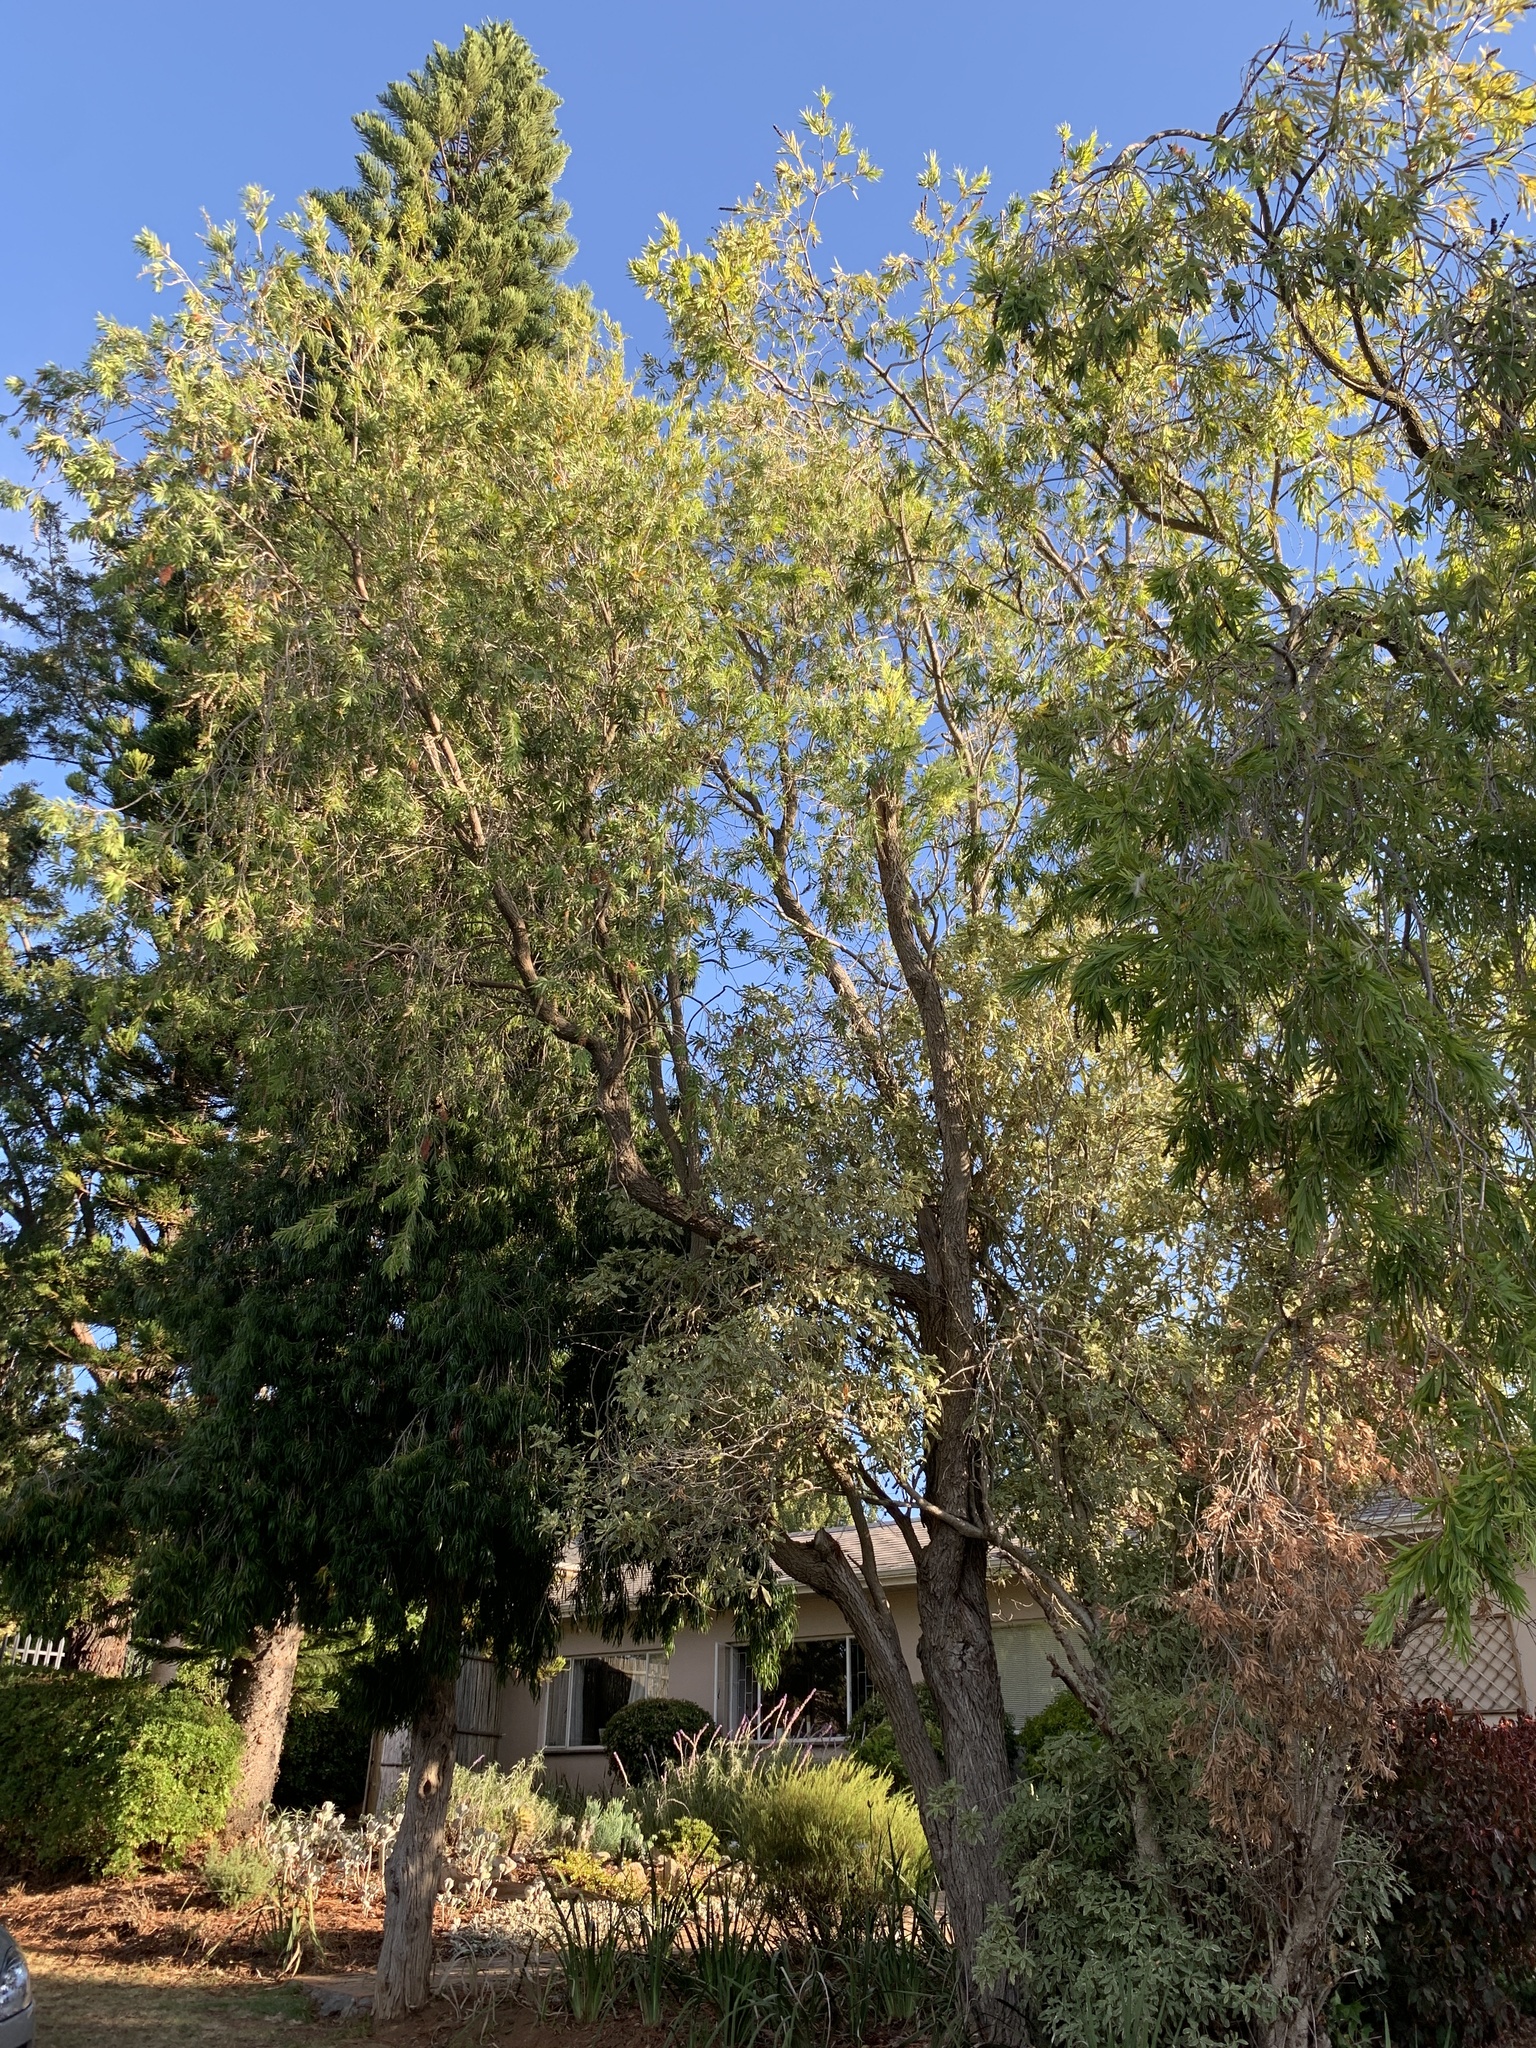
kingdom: Plantae
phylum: Tracheophyta
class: Magnoliopsida
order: Myrtales
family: Myrtaceae
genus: Callistemon
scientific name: Callistemon viminalis
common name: Drooping bottlebrush
